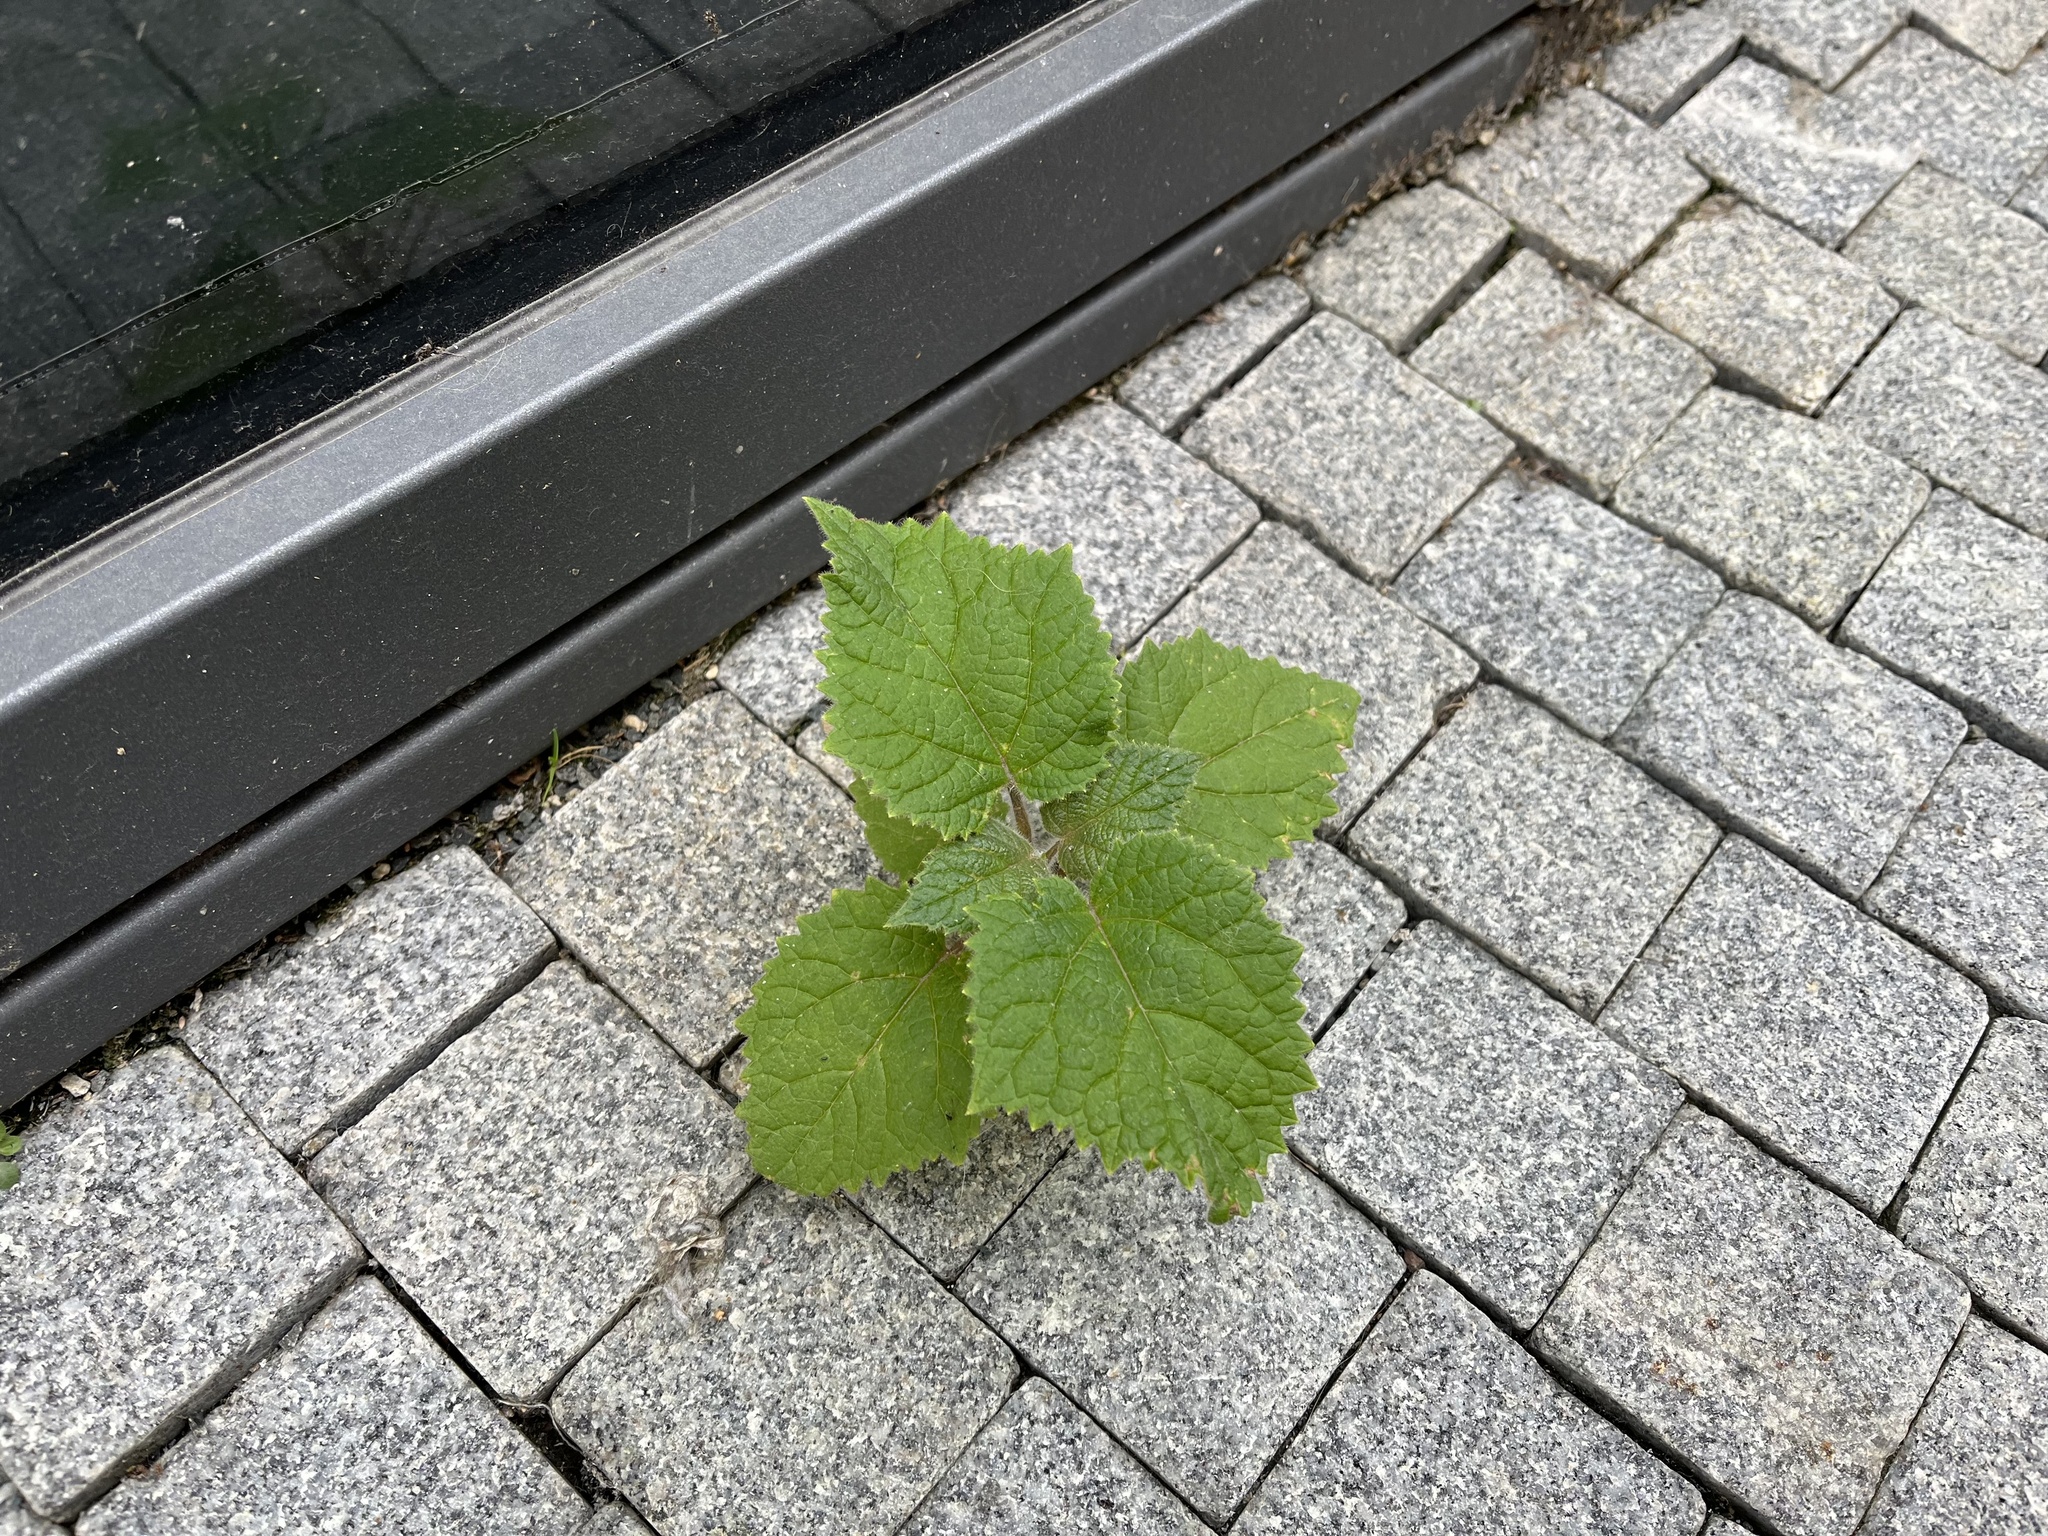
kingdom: Plantae
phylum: Tracheophyta
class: Magnoliopsida
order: Lamiales
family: Paulowniaceae
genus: Paulownia
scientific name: Paulownia tomentosa
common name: Foxglove-tree
